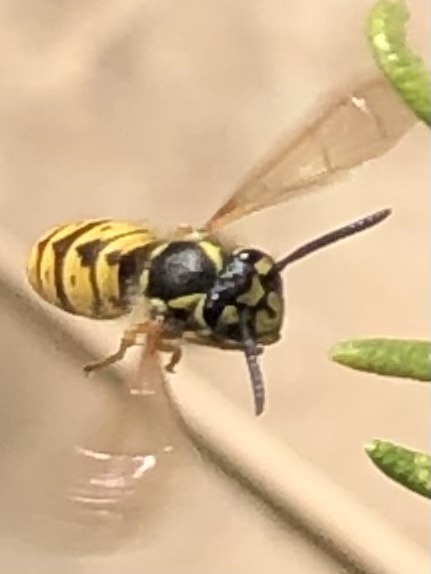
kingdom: Animalia
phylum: Arthropoda
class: Insecta
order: Hymenoptera
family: Vespidae
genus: Vespula
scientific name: Vespula germanica
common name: German wasp
